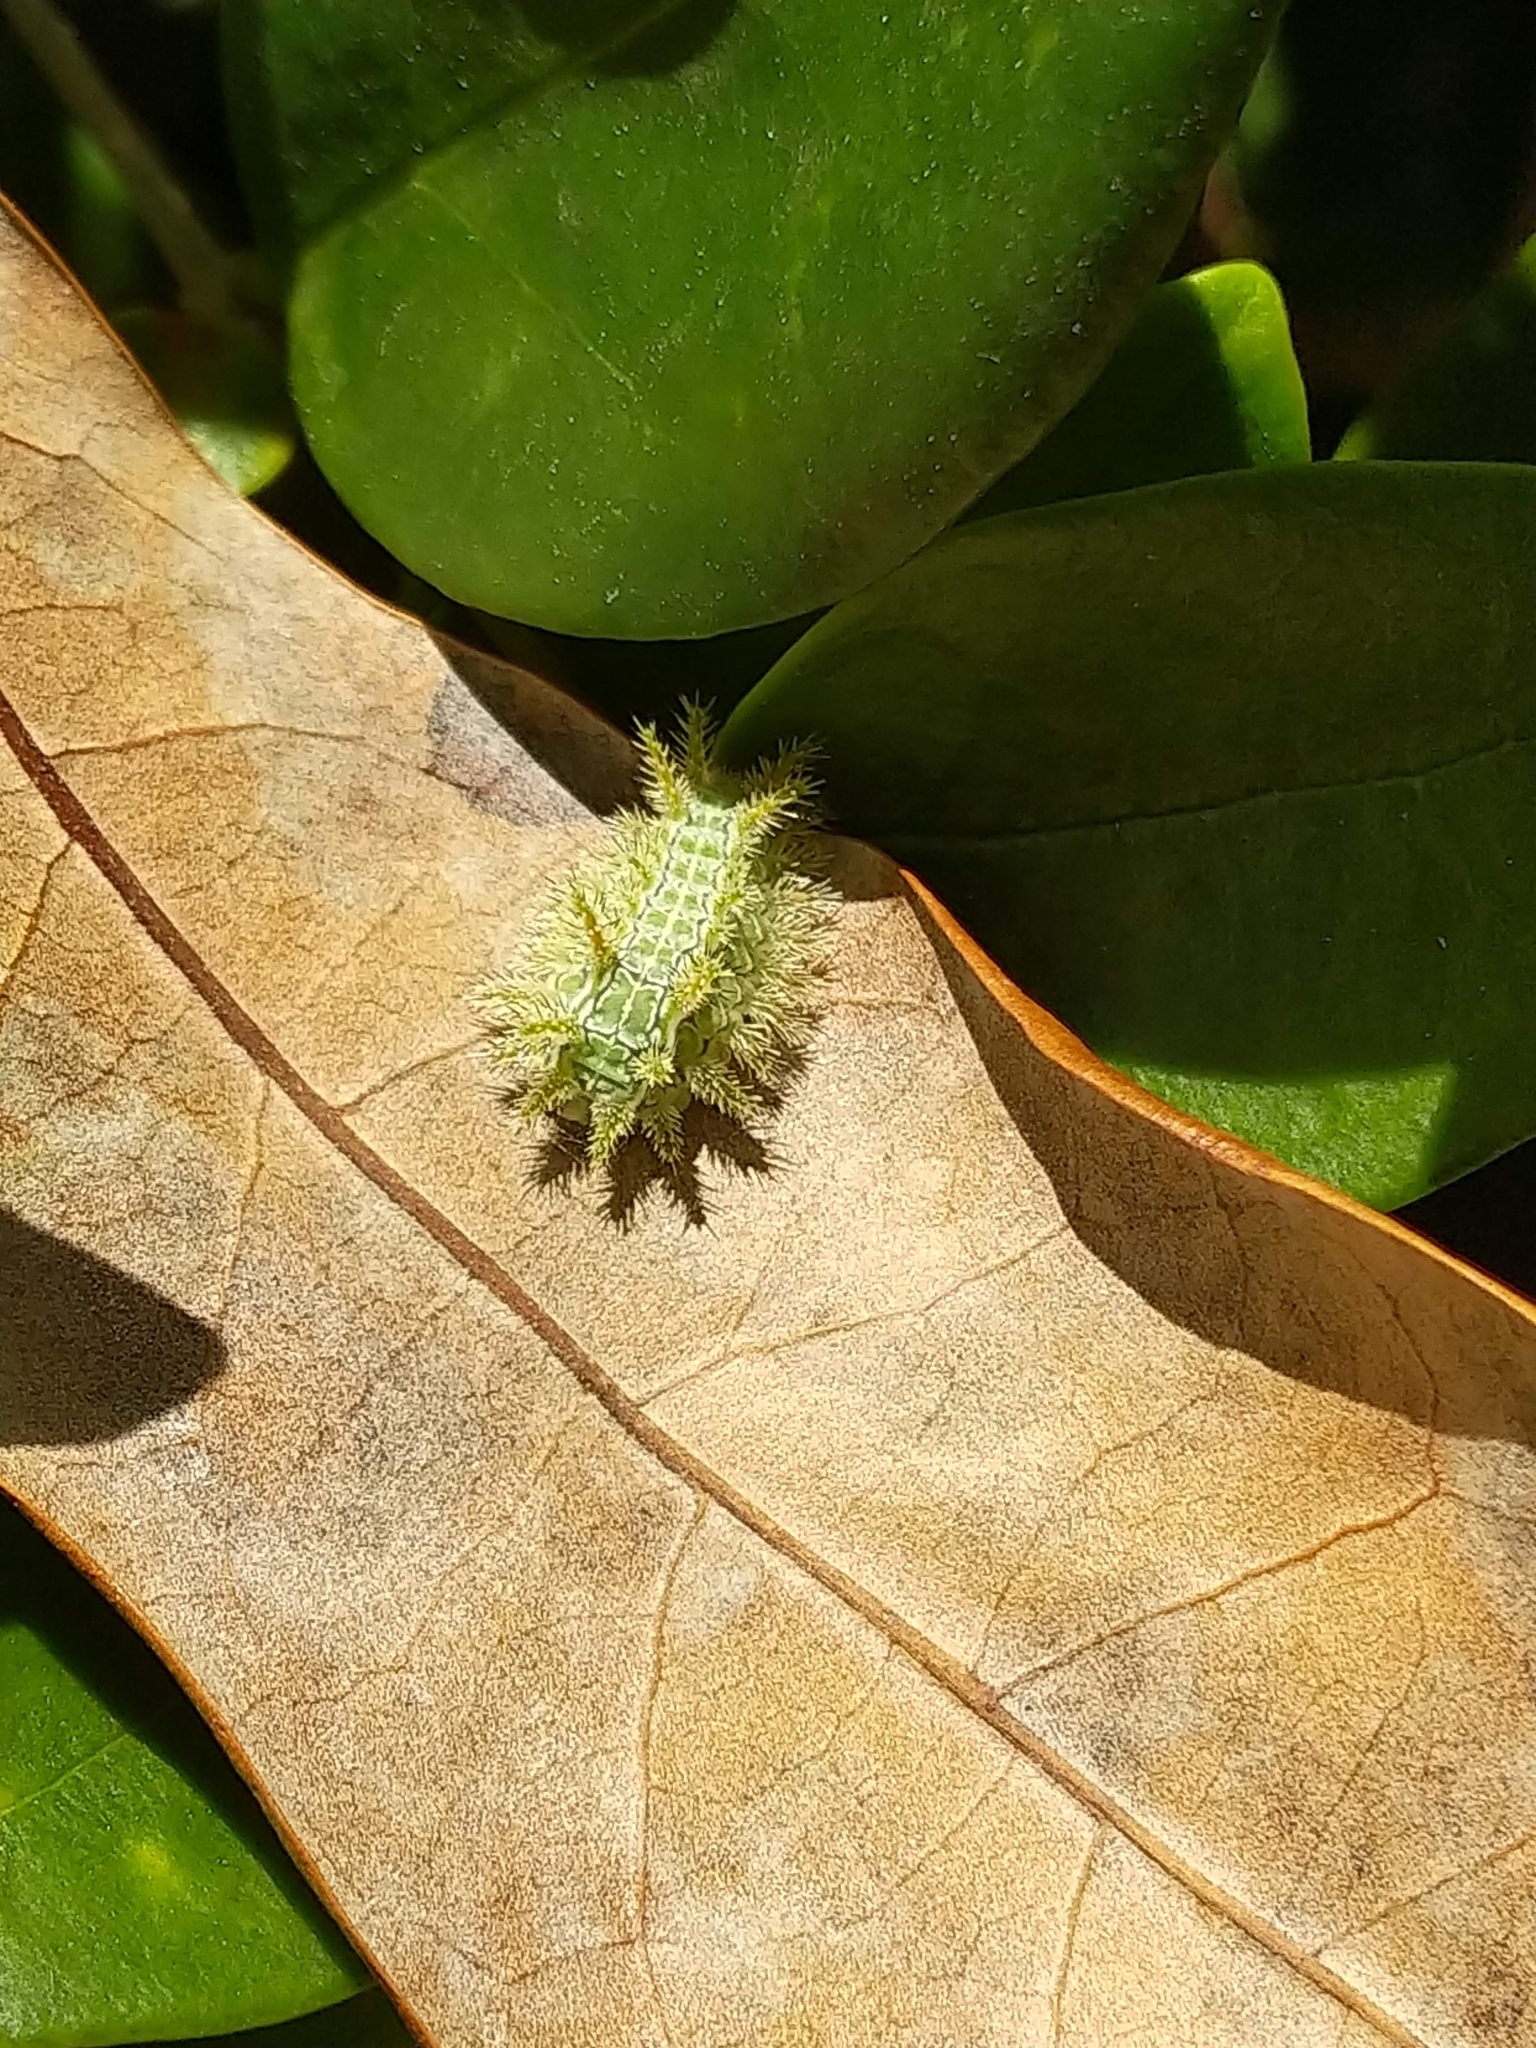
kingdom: Animalia
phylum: Arthropoda
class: Insecta
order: Lepidoptera
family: Limacodidae
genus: Euclea
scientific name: Euclea incisa
